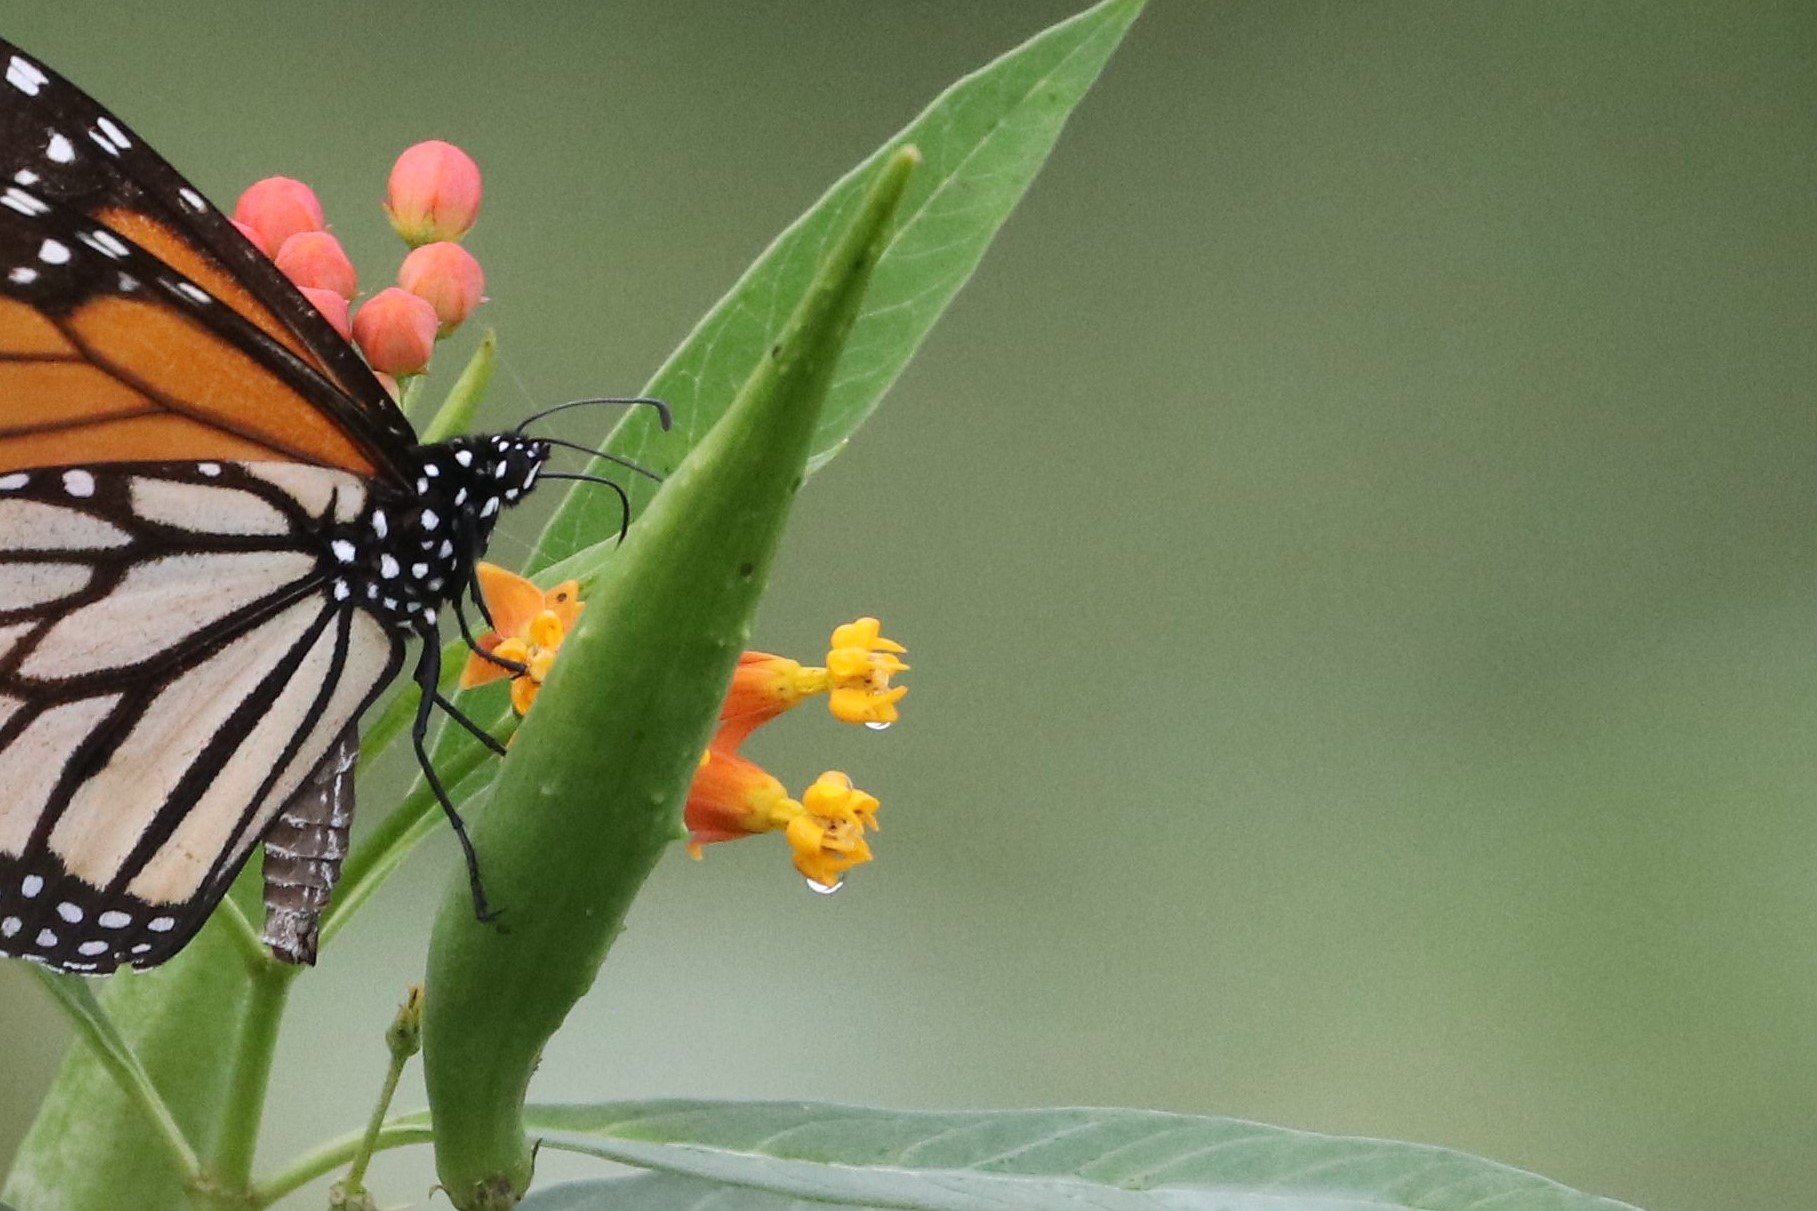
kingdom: Plantae
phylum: Tracheophyta
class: Magnoliopsida
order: Gentianales
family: Apocynaceae
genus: Asclepias
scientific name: Asclepias curassavica
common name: Bloodflower
